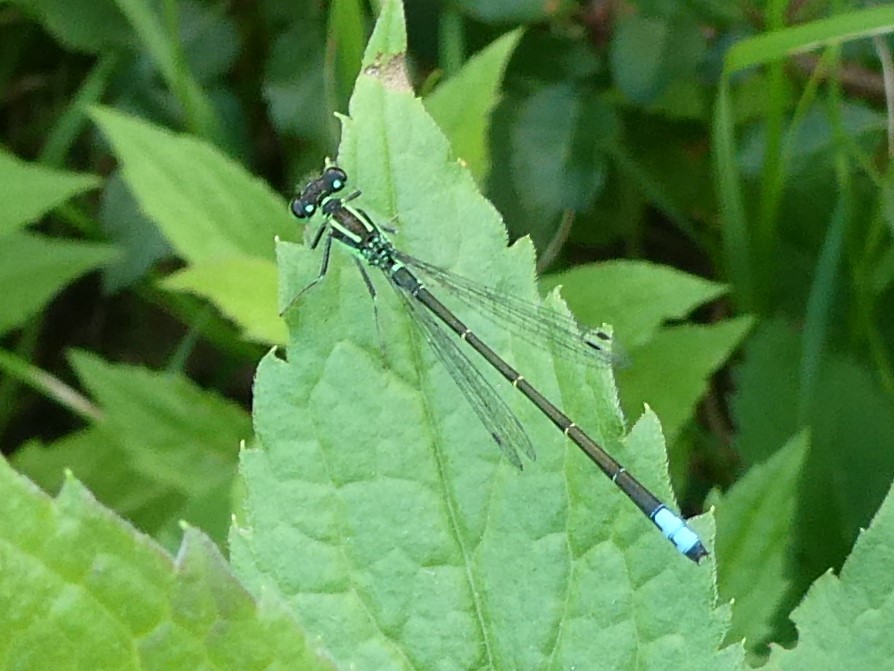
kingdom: Animalia
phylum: Arthropoda
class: Insecta
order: Odonata
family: Coenagrionidae
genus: Ischnura
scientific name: Ischnura verticalis
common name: Eastern forktail
